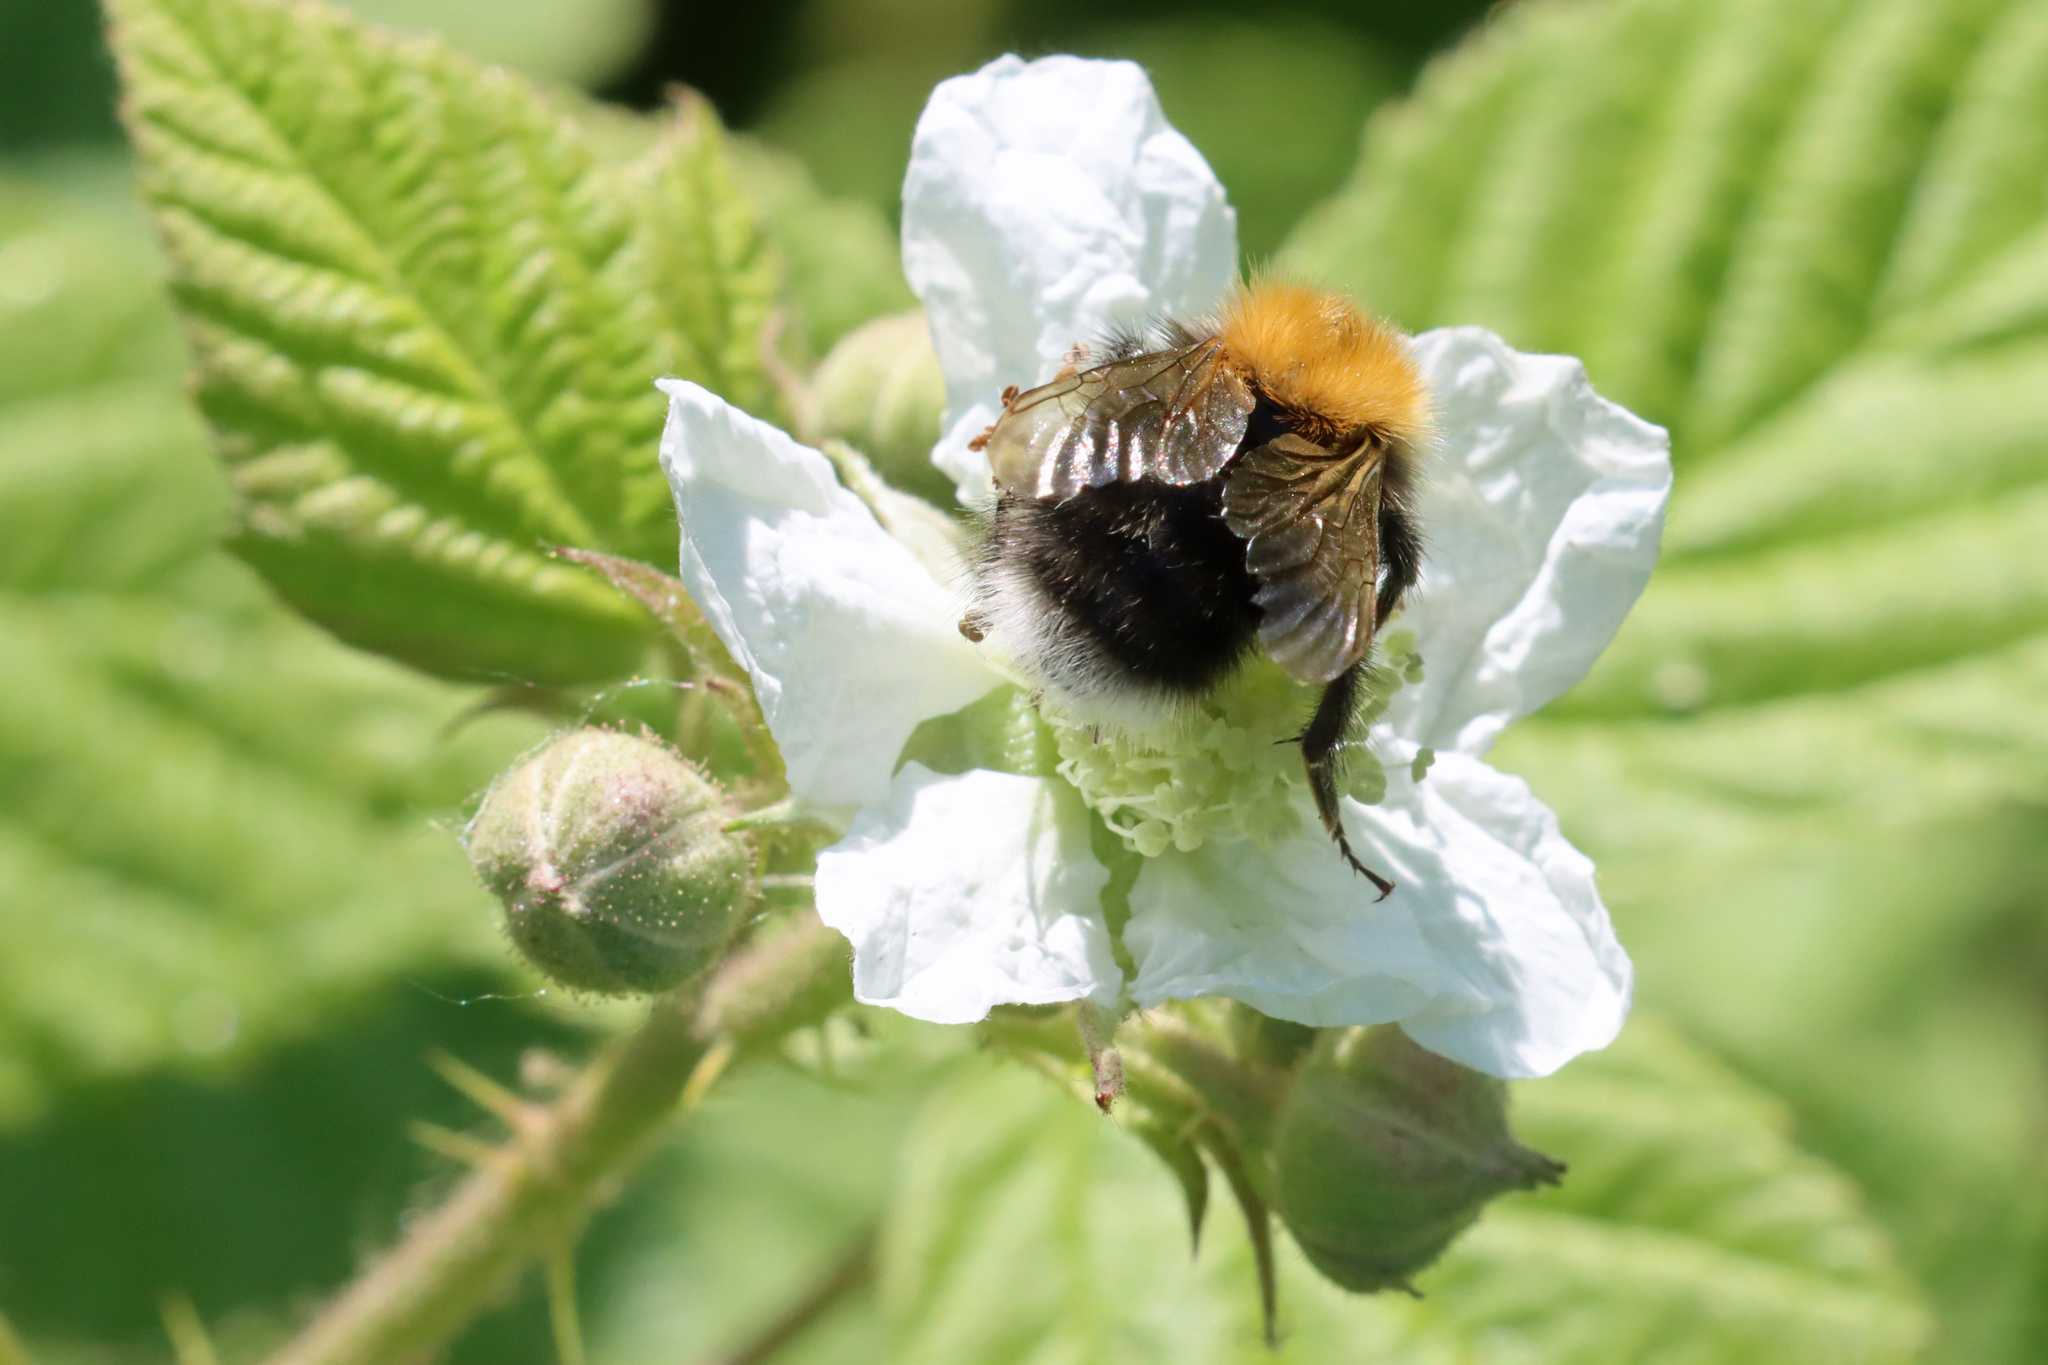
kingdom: Animalia
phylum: Arthropoda
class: Insecta
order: Hymenoptera
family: Apidae
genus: Bombus
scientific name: Bombus hypnorum
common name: New garden bumblebee
